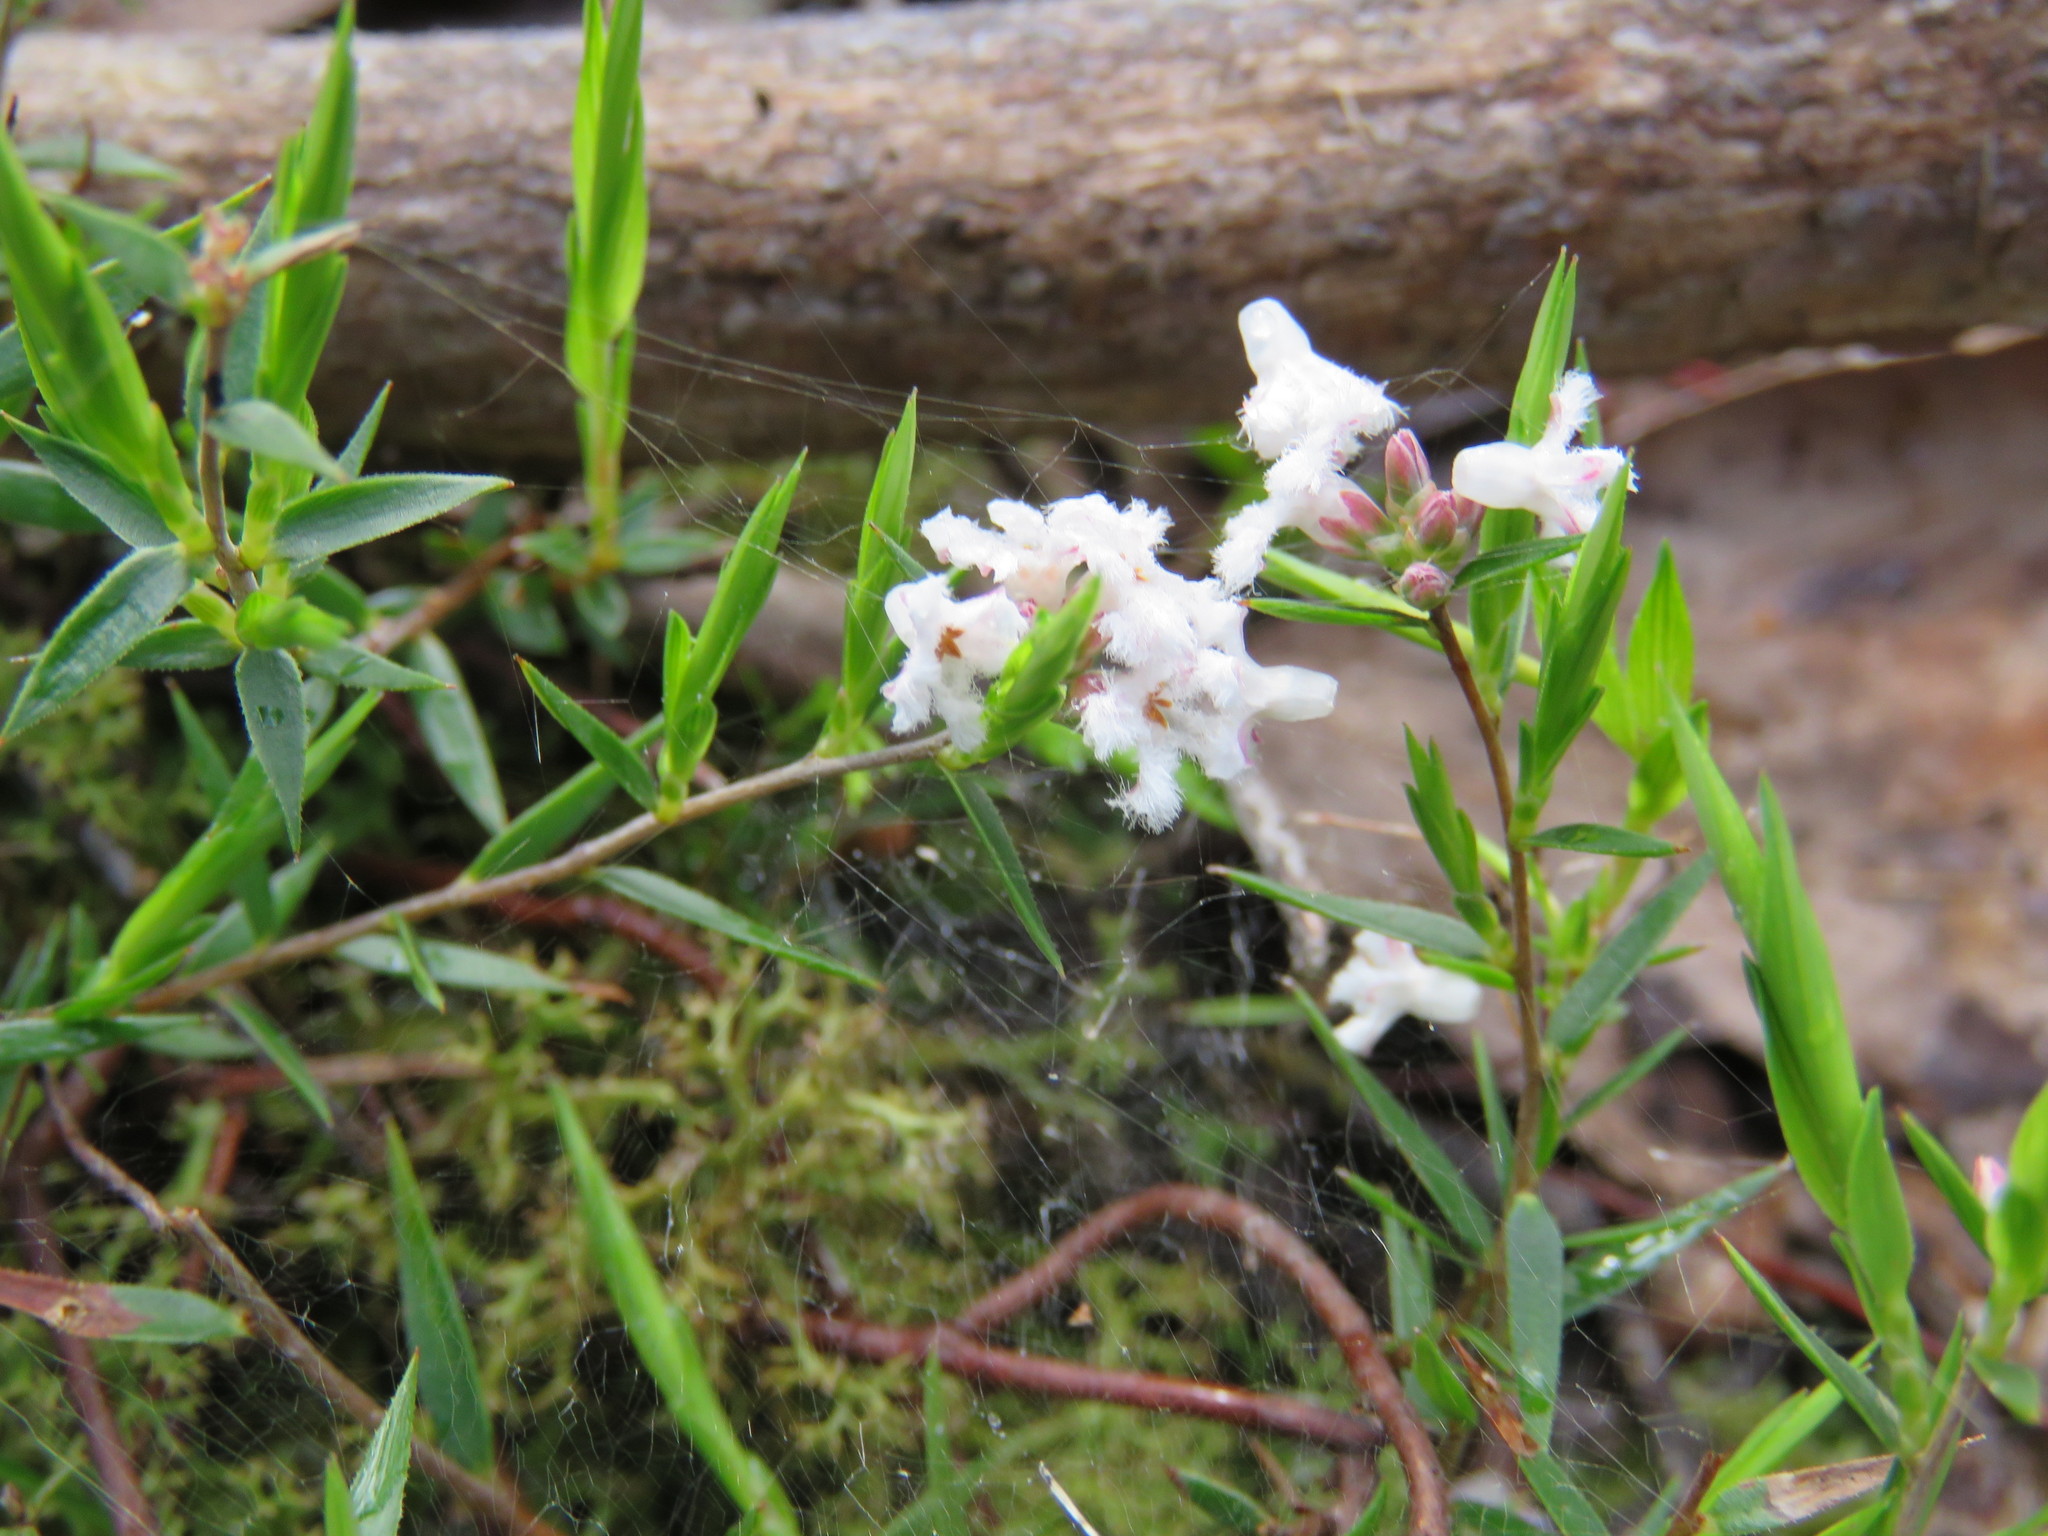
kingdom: Plantae
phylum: Tracheophyta
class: Magnoliopsida
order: Ericales
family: Ericaceae
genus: Leucopogon
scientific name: Leucopogon virgatus
